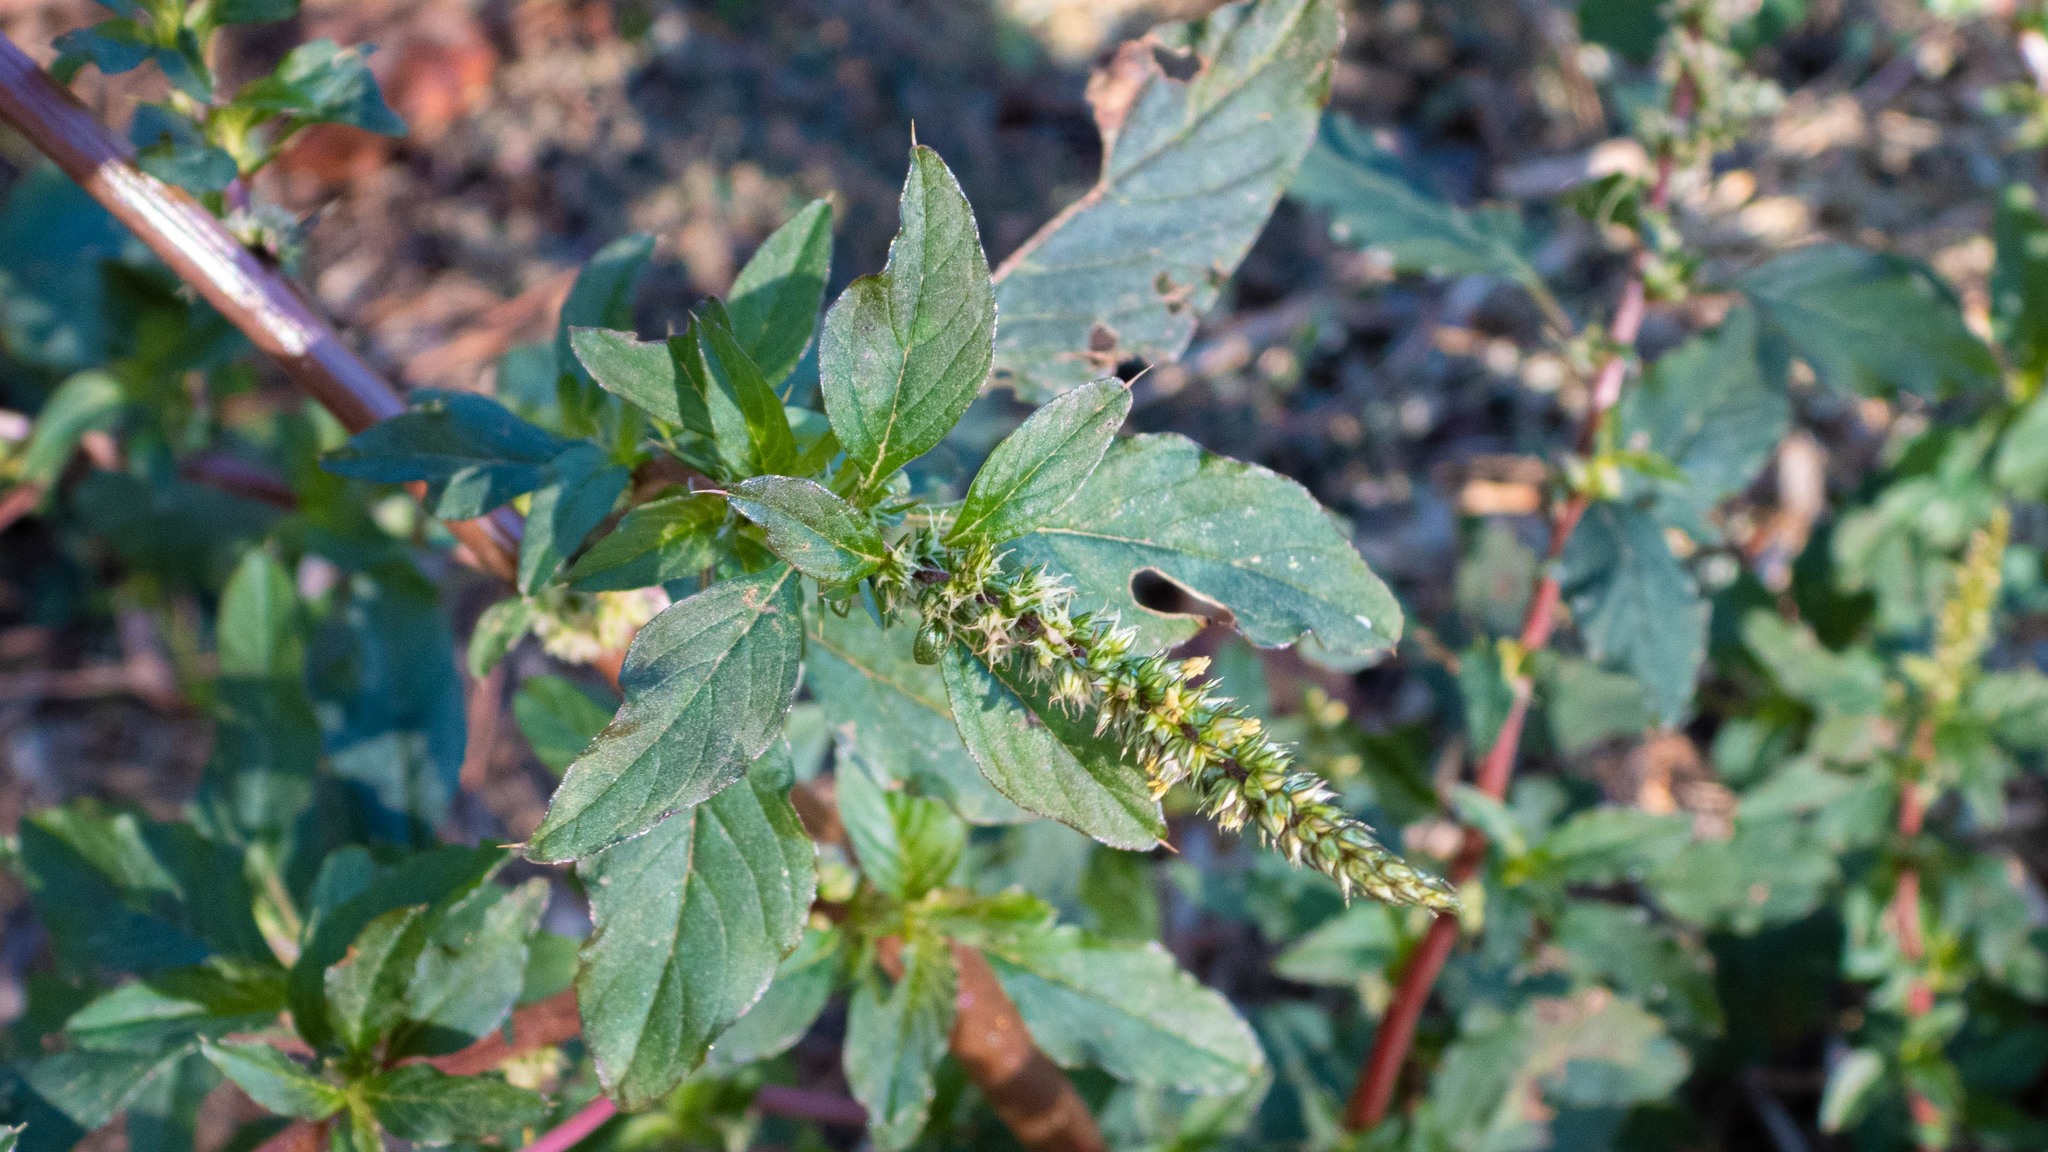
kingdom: Plantae
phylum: Tracheophyta
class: Magnoliopsida
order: Caryophyllales
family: Amaranthaceae
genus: Amaranthus
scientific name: Amaranthus palmeri
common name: Dioecious amaranth
